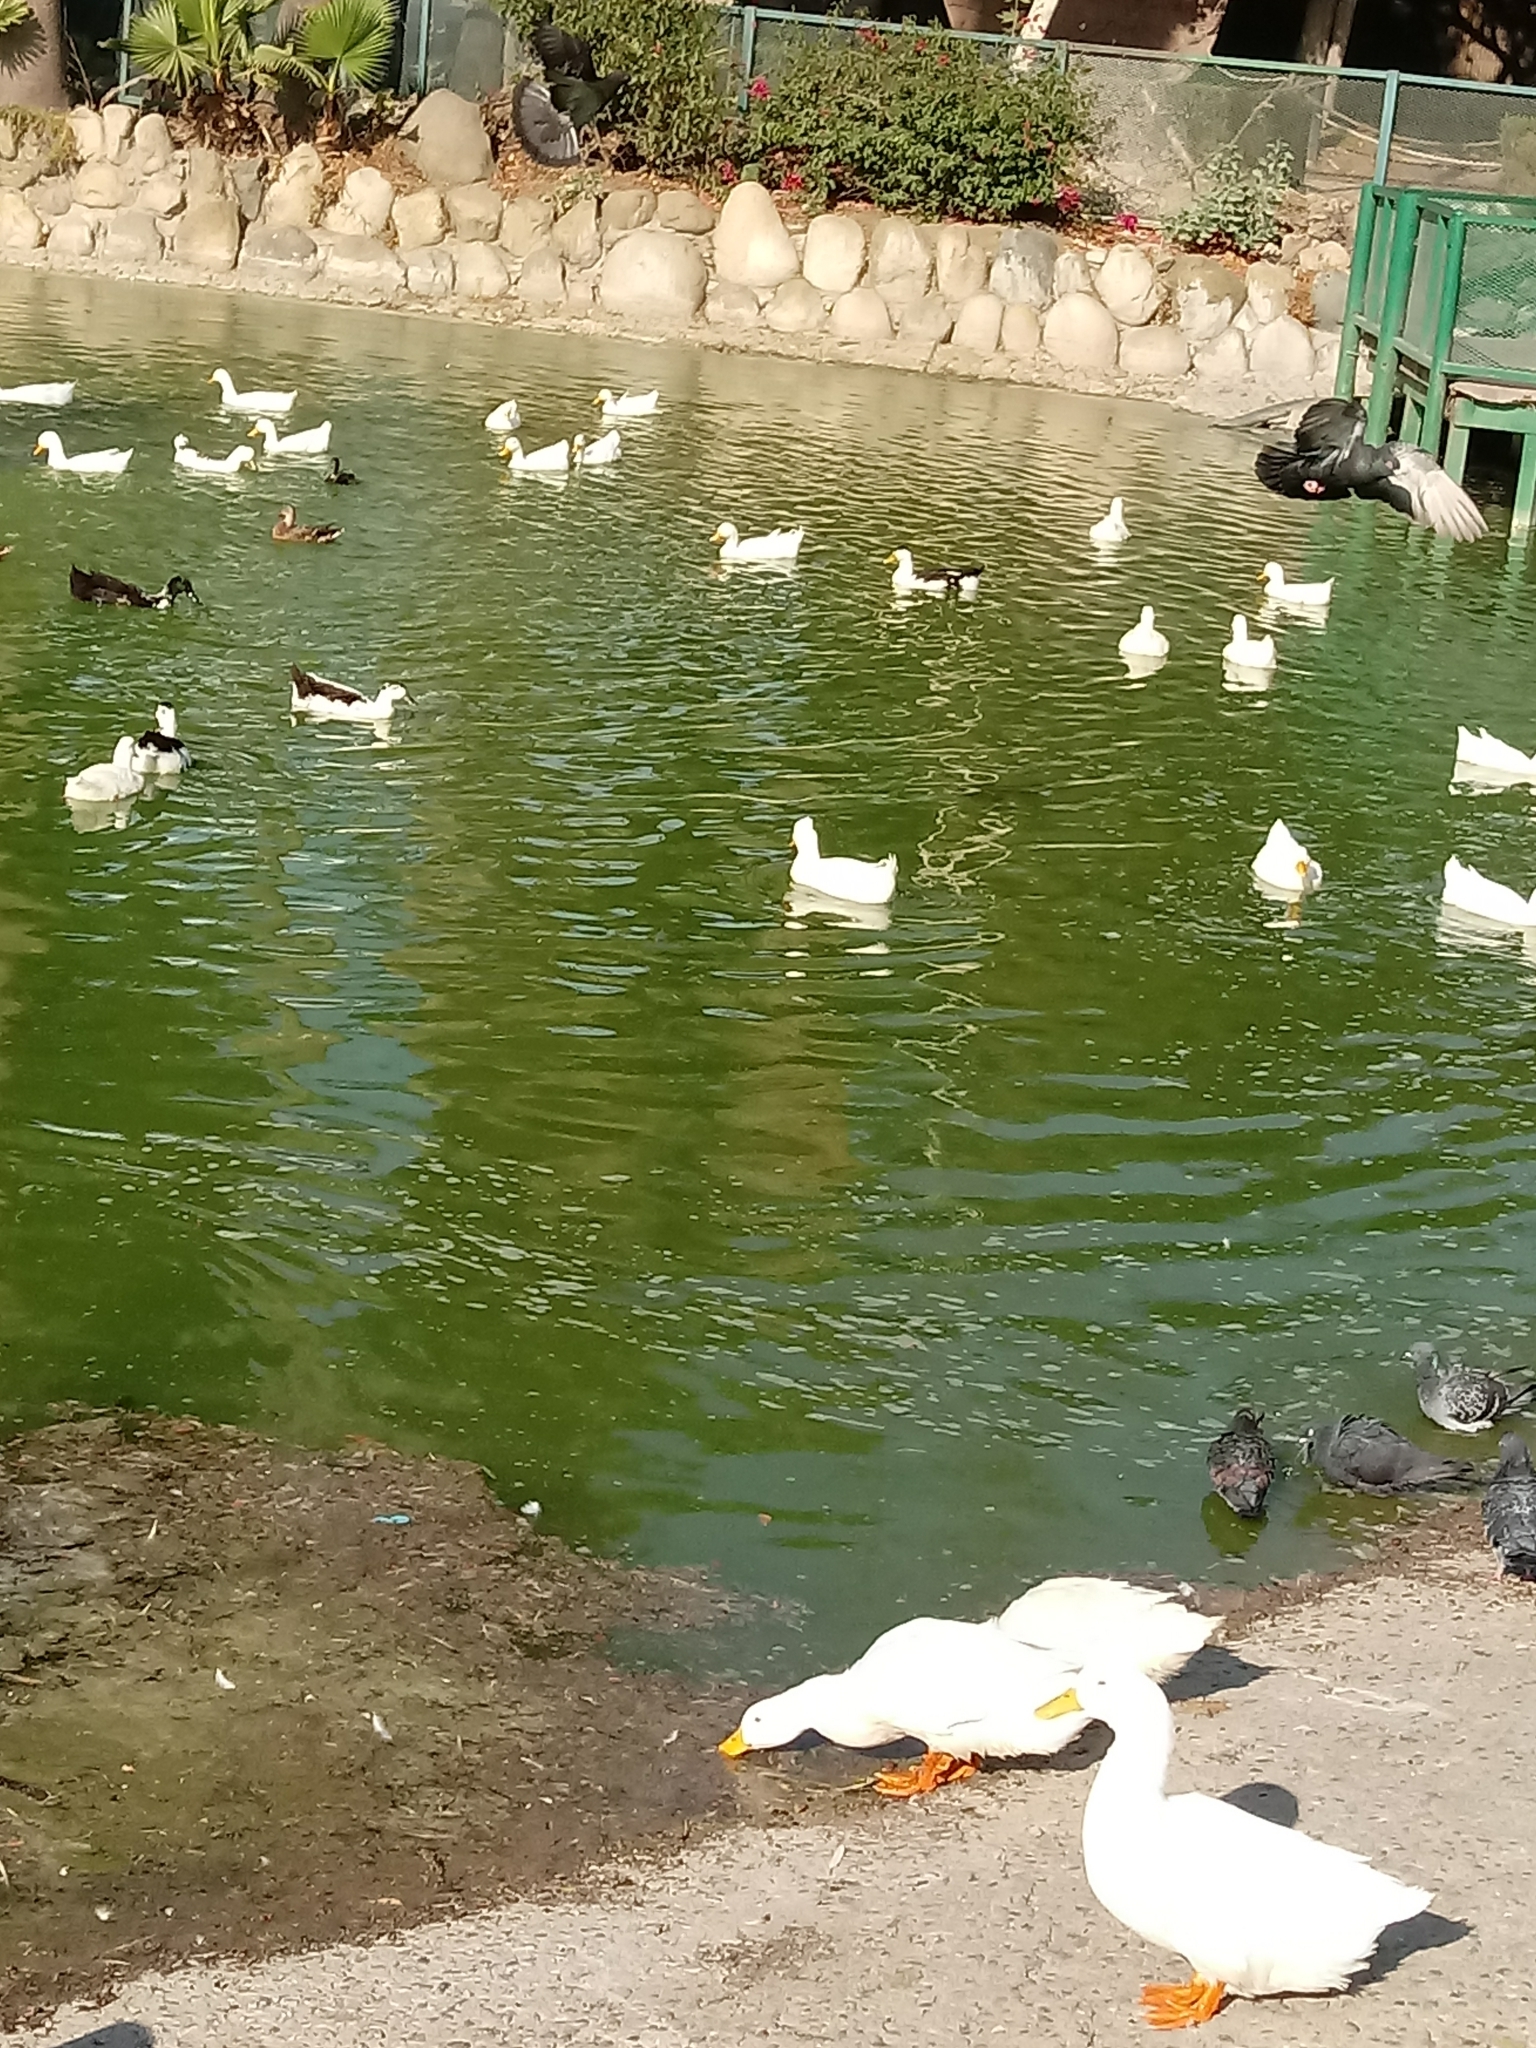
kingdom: Animalia
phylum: Chordata
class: Aves
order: Anseriformes
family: Anatidae
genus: Anas
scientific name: Anas platyrhynchos
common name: Mallard
